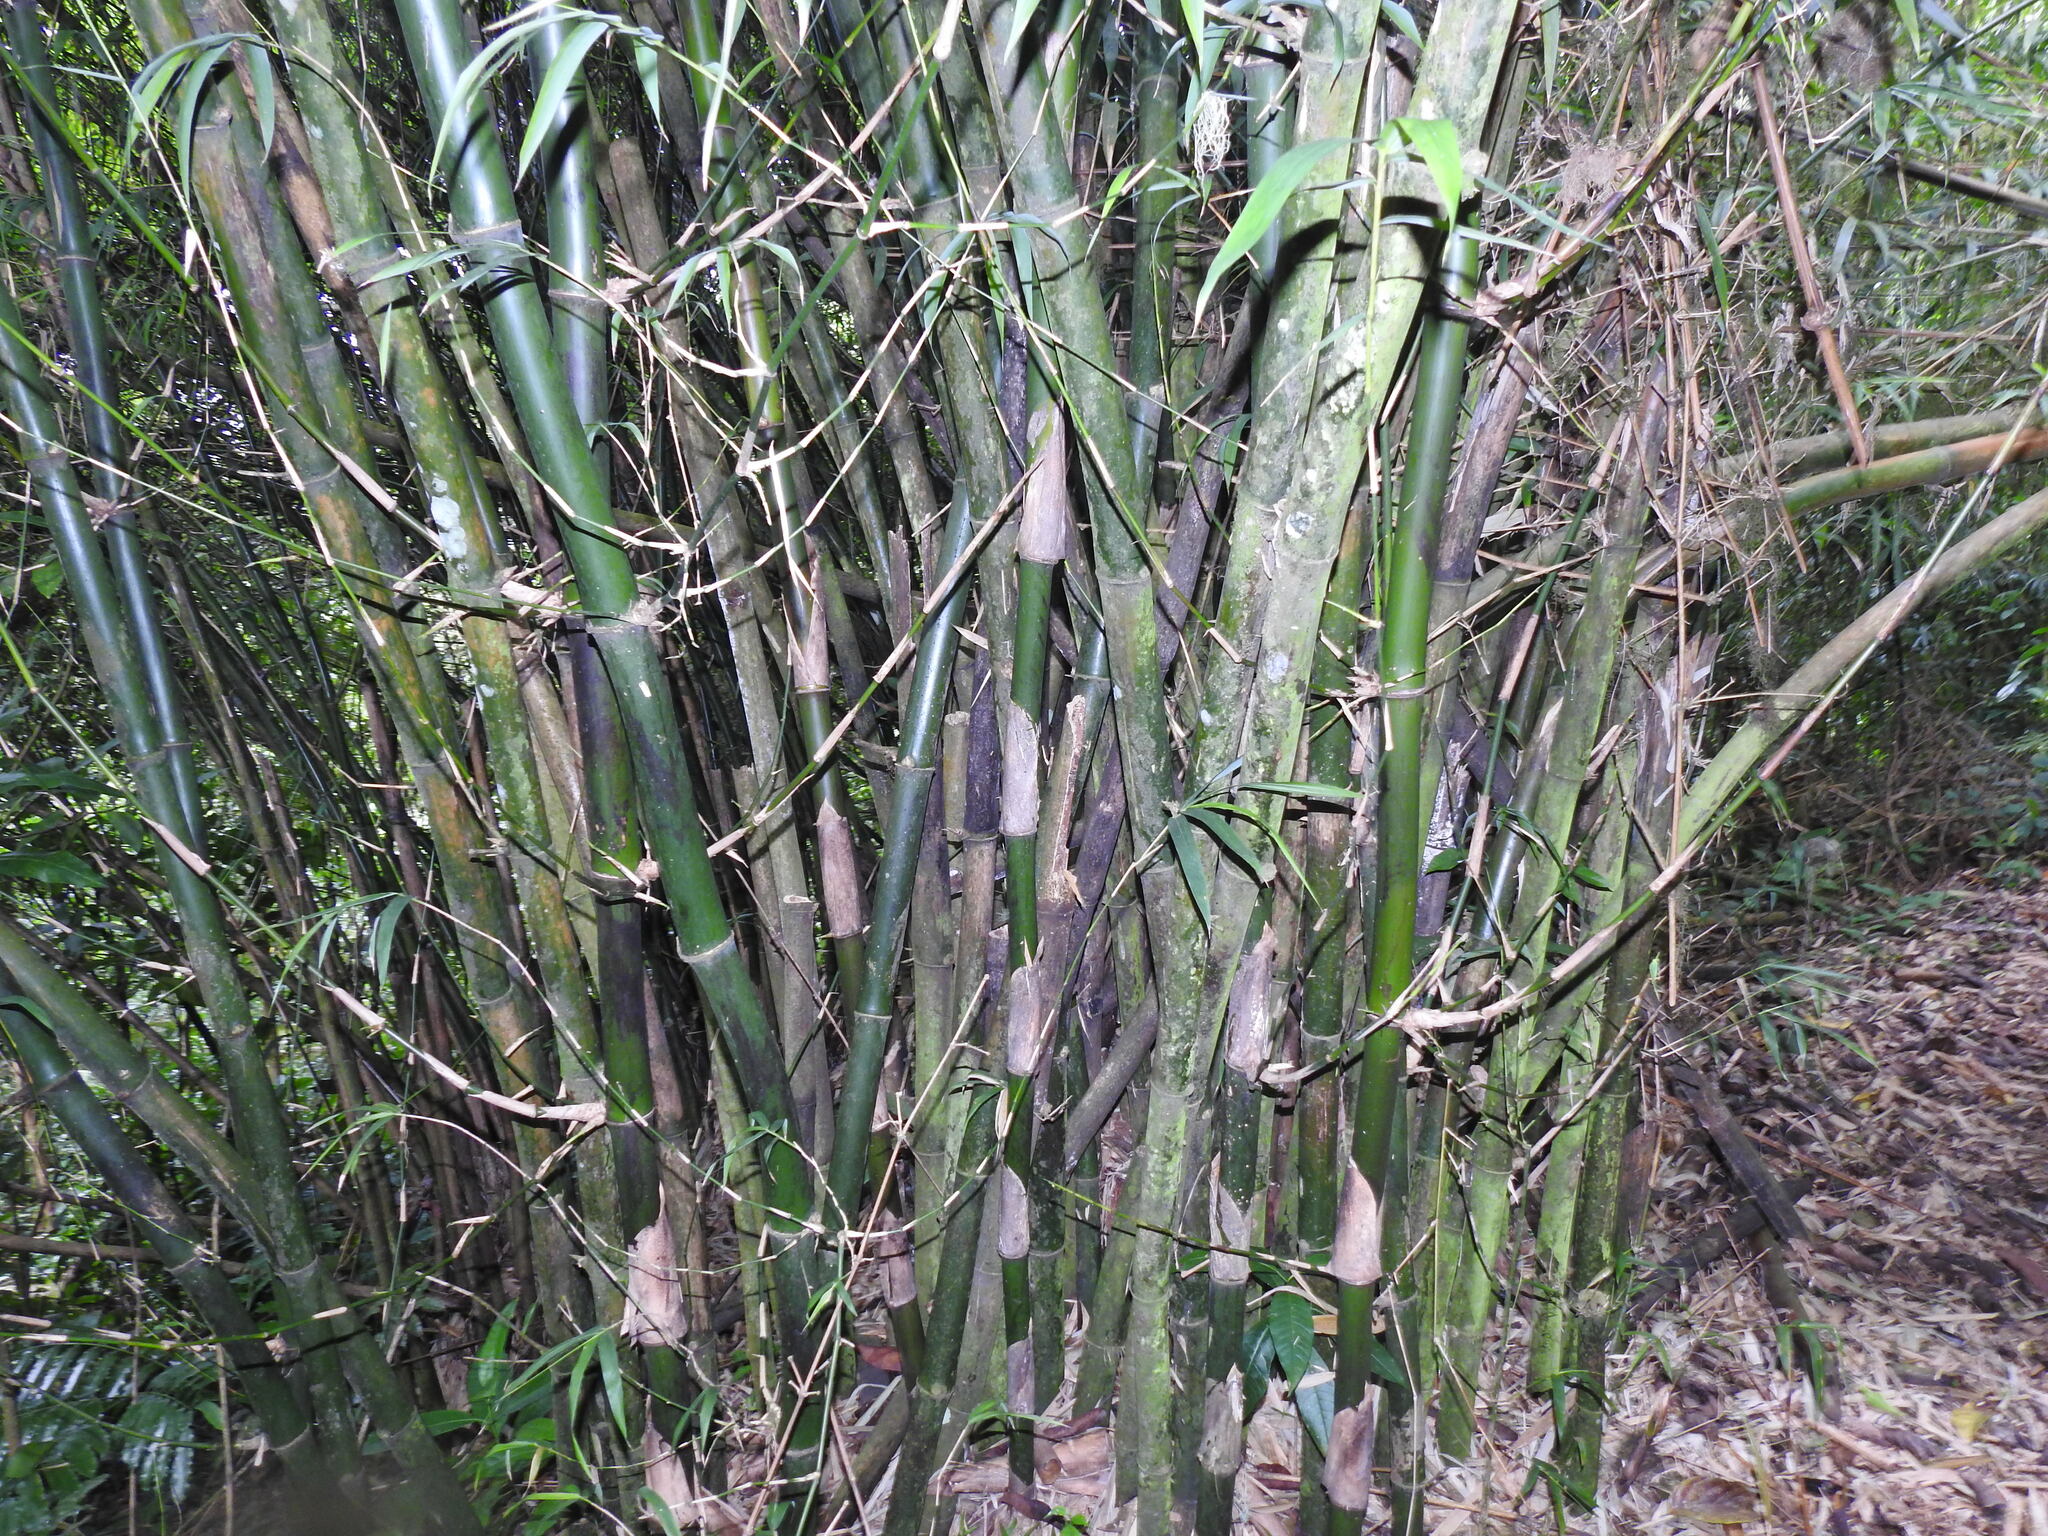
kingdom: Plantae
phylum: Tracheophyta
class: Liliopsida
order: Poales
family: Poaceae
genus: Bambusa
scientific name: Bambusa vulgaris
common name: Common bamboo
